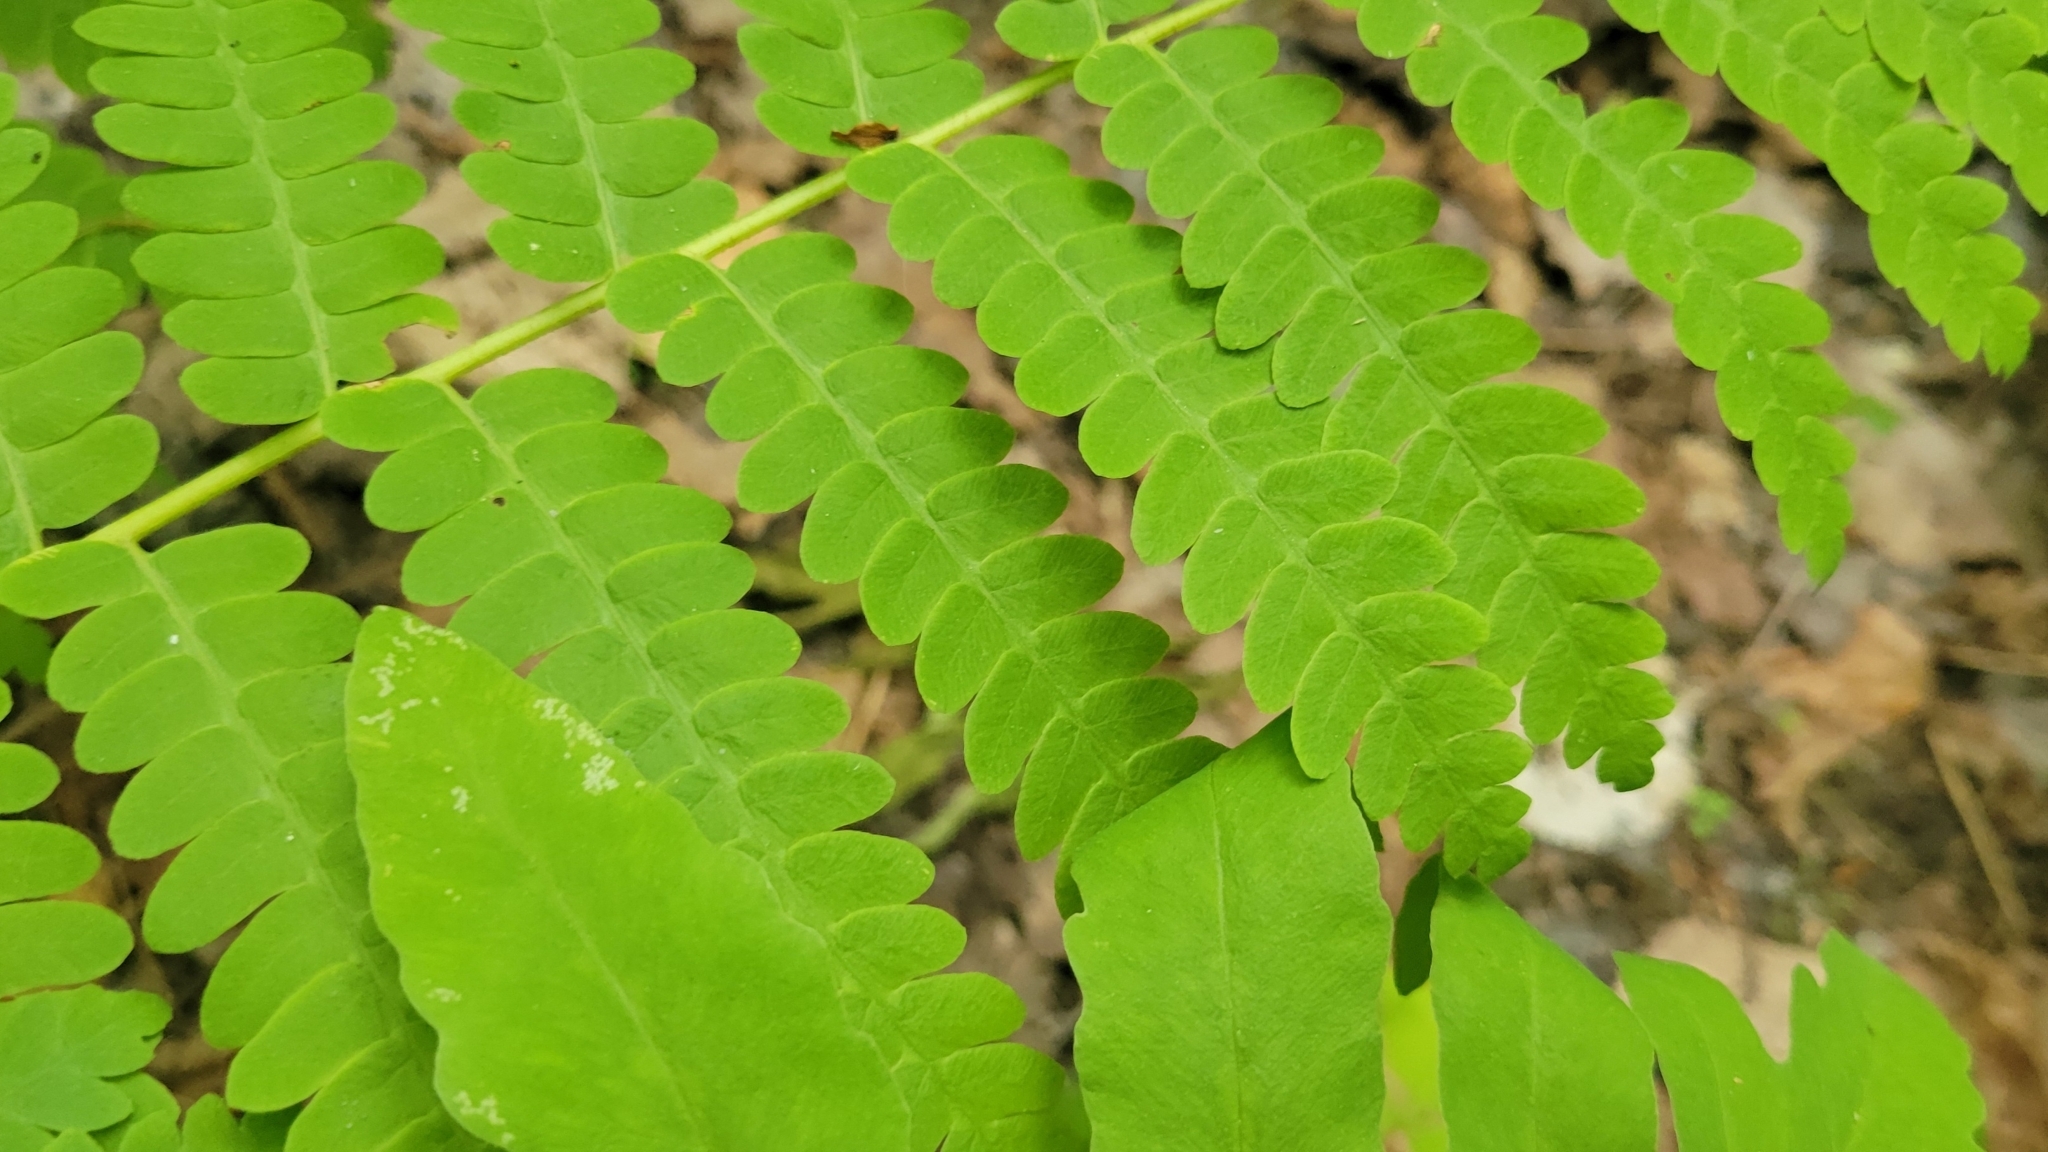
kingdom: Plantae
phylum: Tracheophyta
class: Polypodiopsida
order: Osmundales
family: Osmundaceae
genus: Claytosmunda
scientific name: Claytosmunda claytoniana
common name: Clayton's fern
